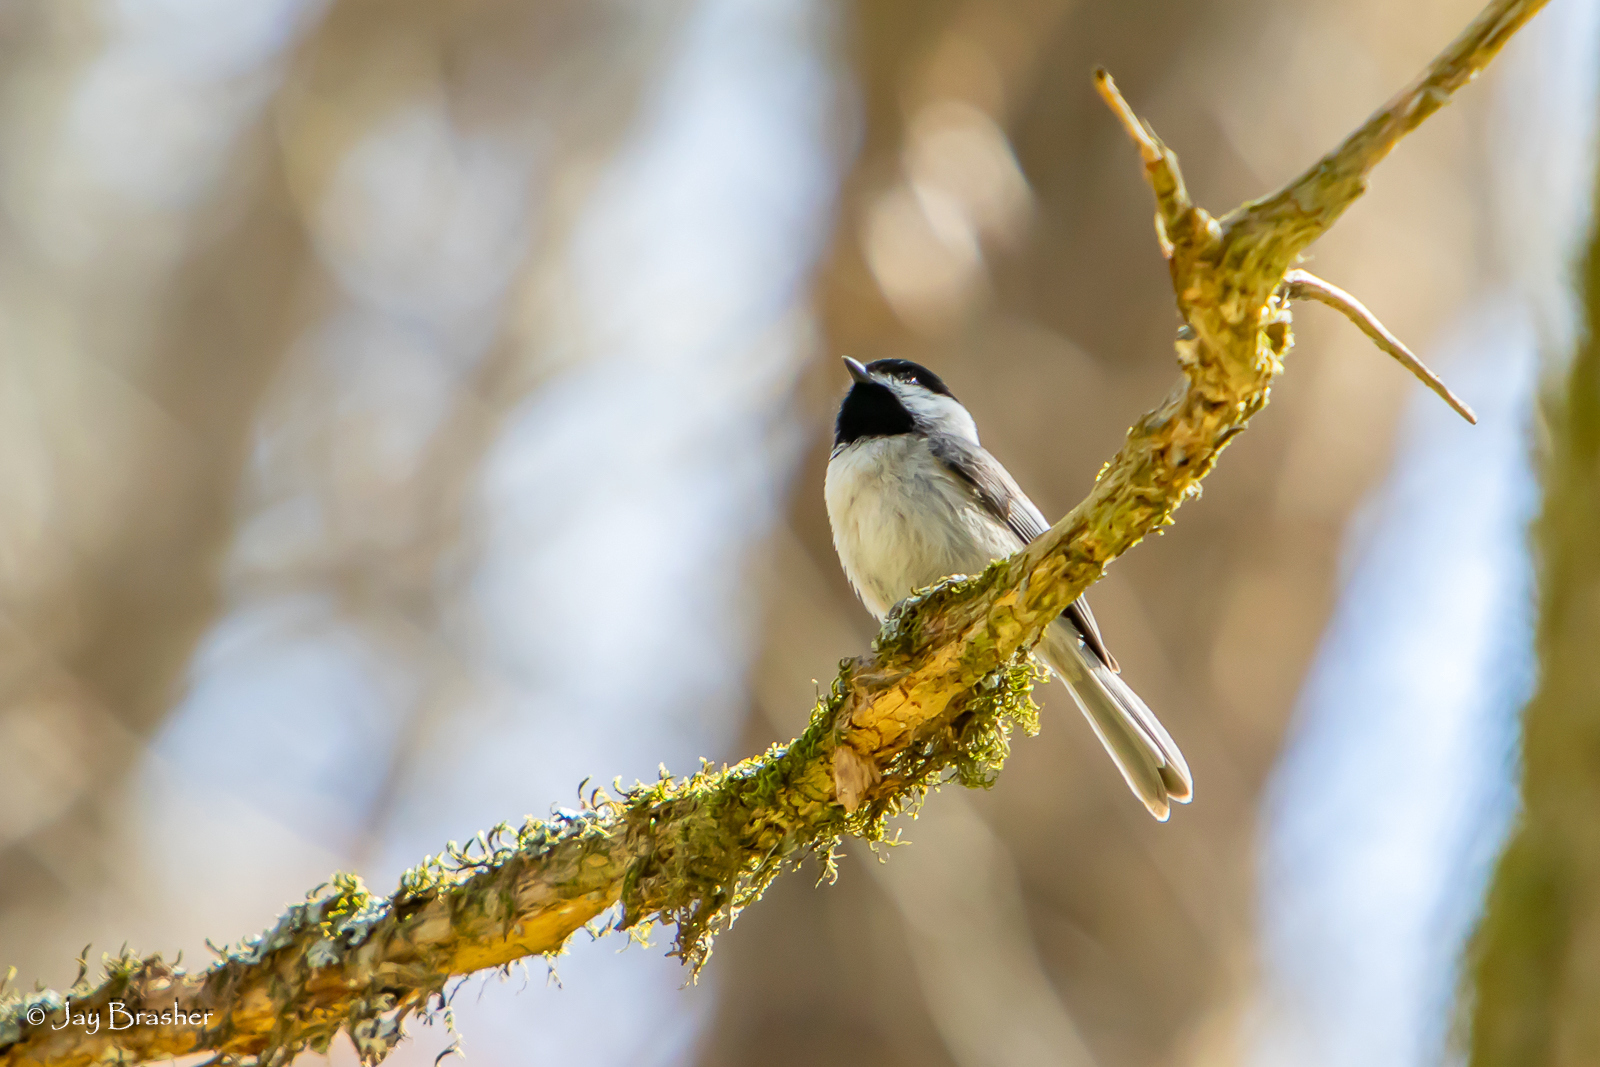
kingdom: Animalia
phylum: Chordata
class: Aves
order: Passeriformes
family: Paridae
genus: Poecile
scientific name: Poecile carolinensis
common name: Carolina chickadee
